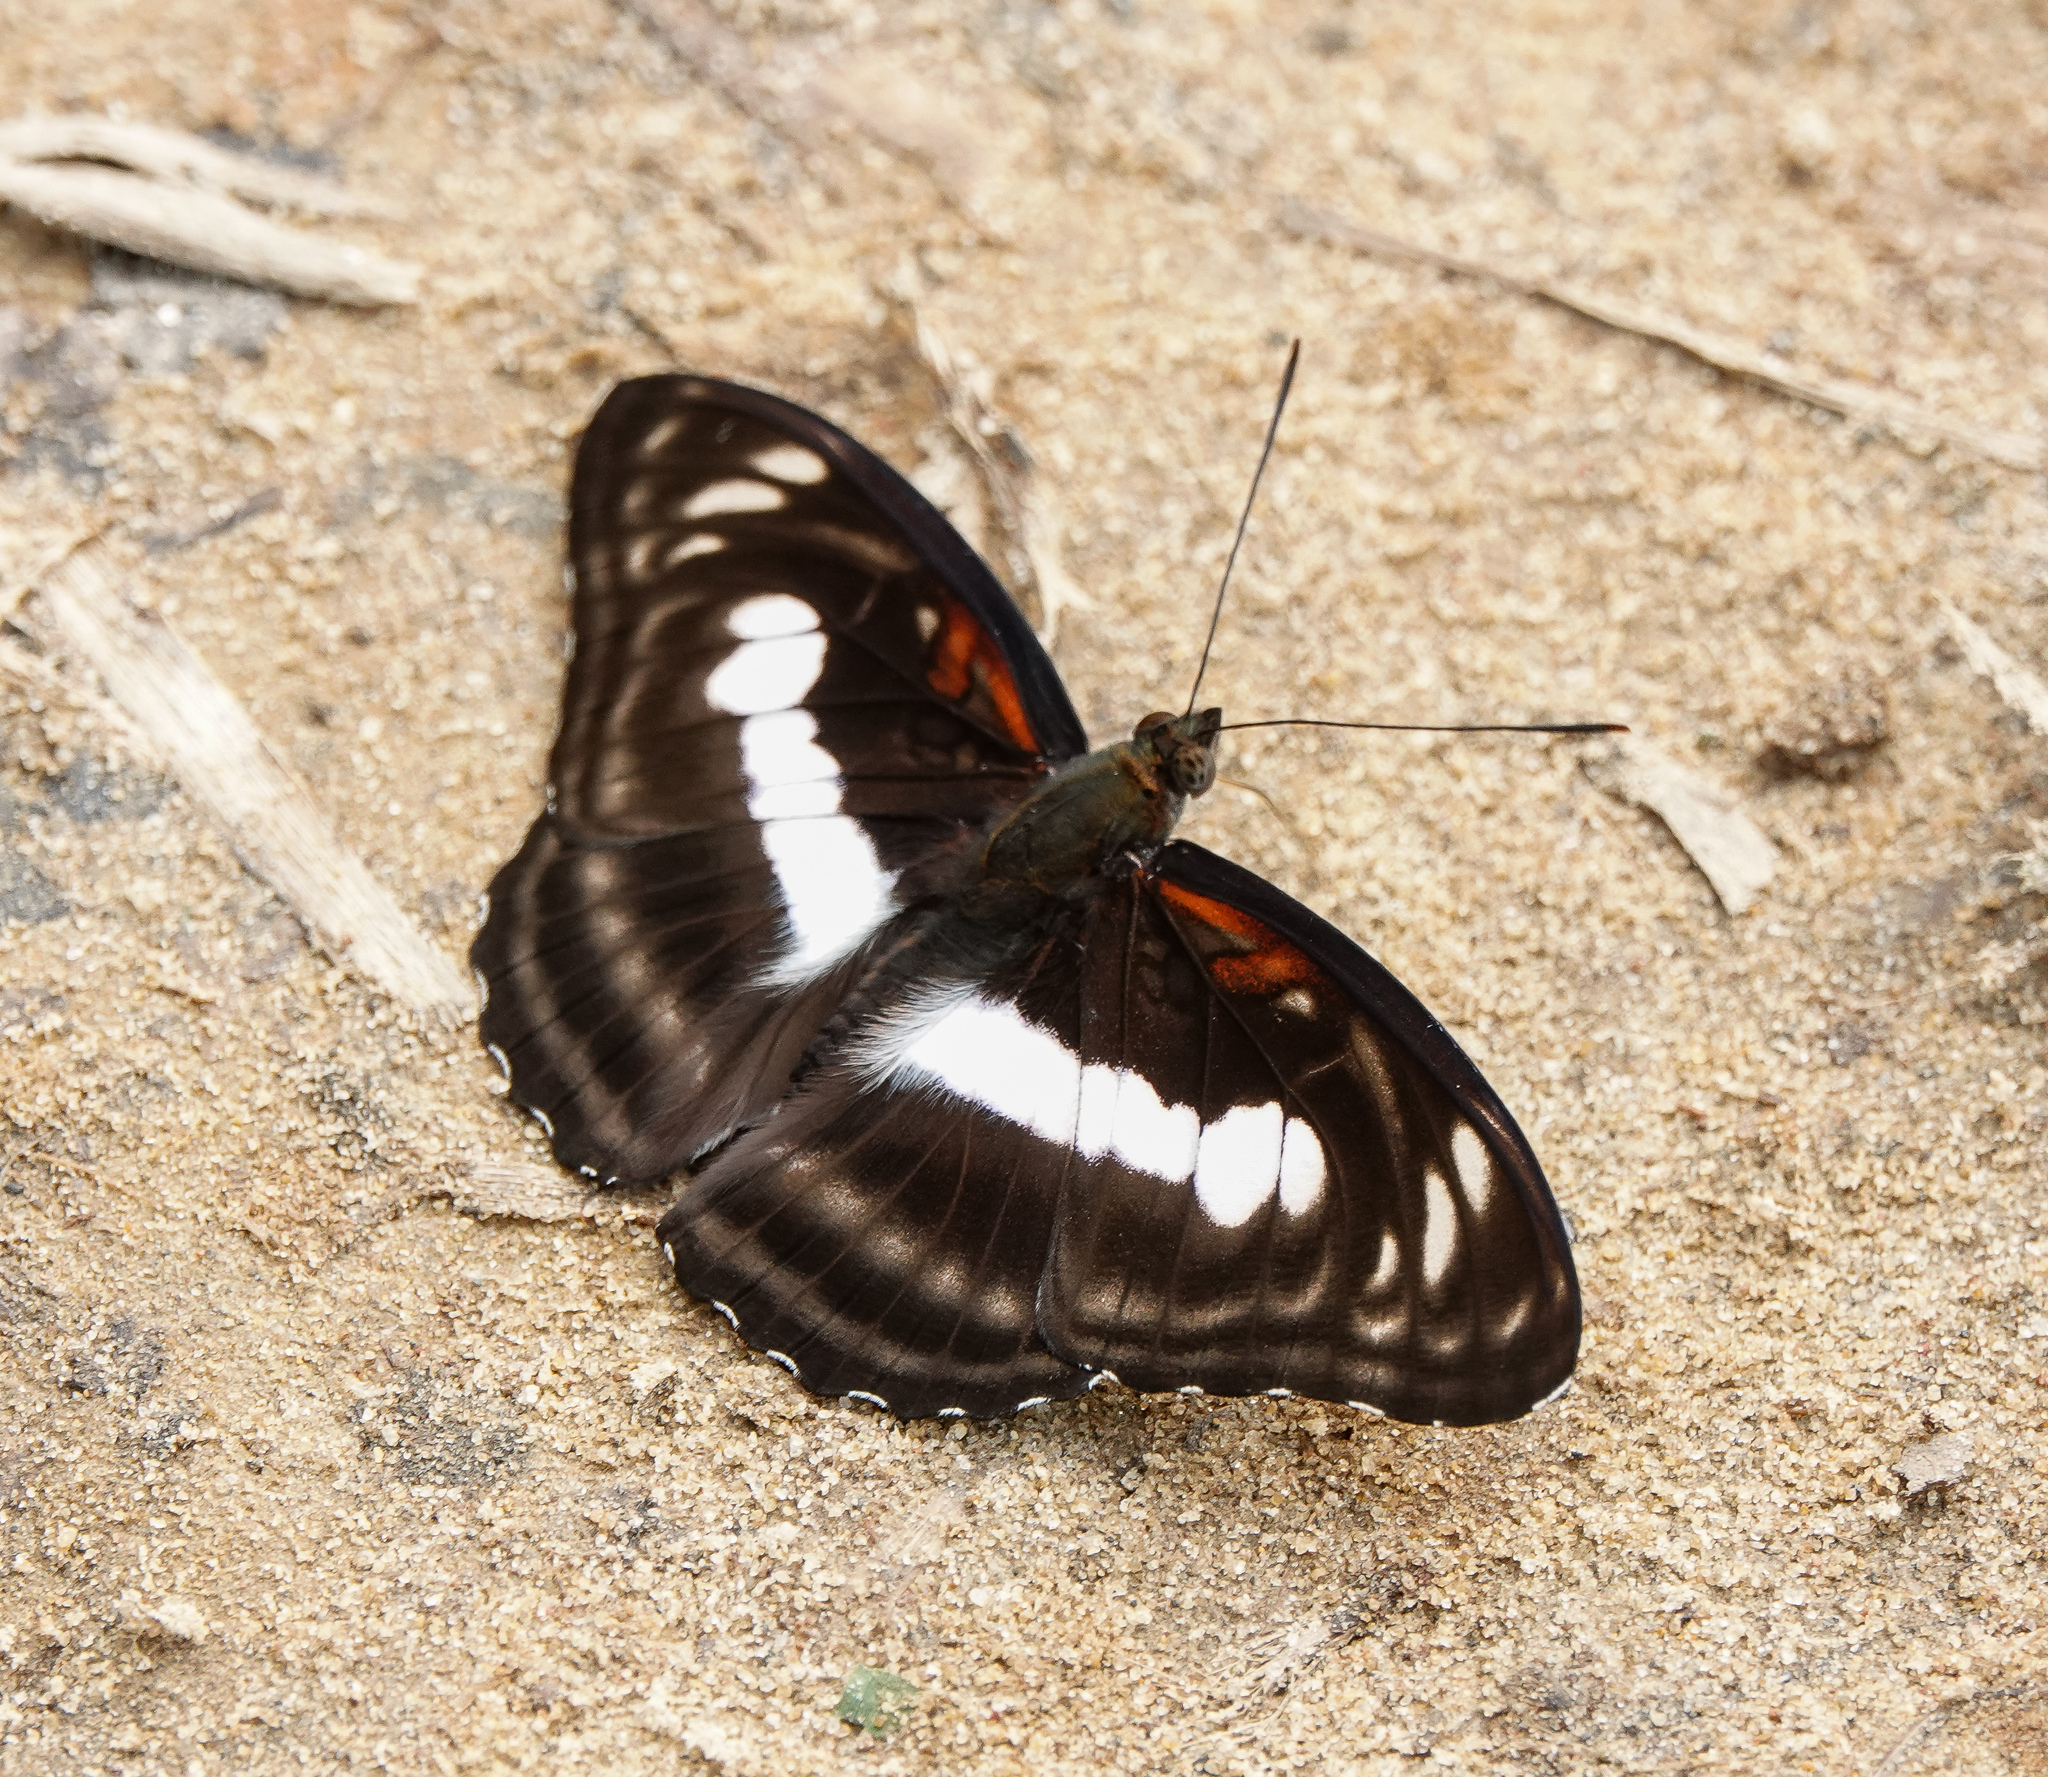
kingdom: Animalia
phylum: Arthropoda
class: Insecta
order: Lepidoptera
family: Nymphalidae
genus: Parathyma
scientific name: Parathyma selenophora
